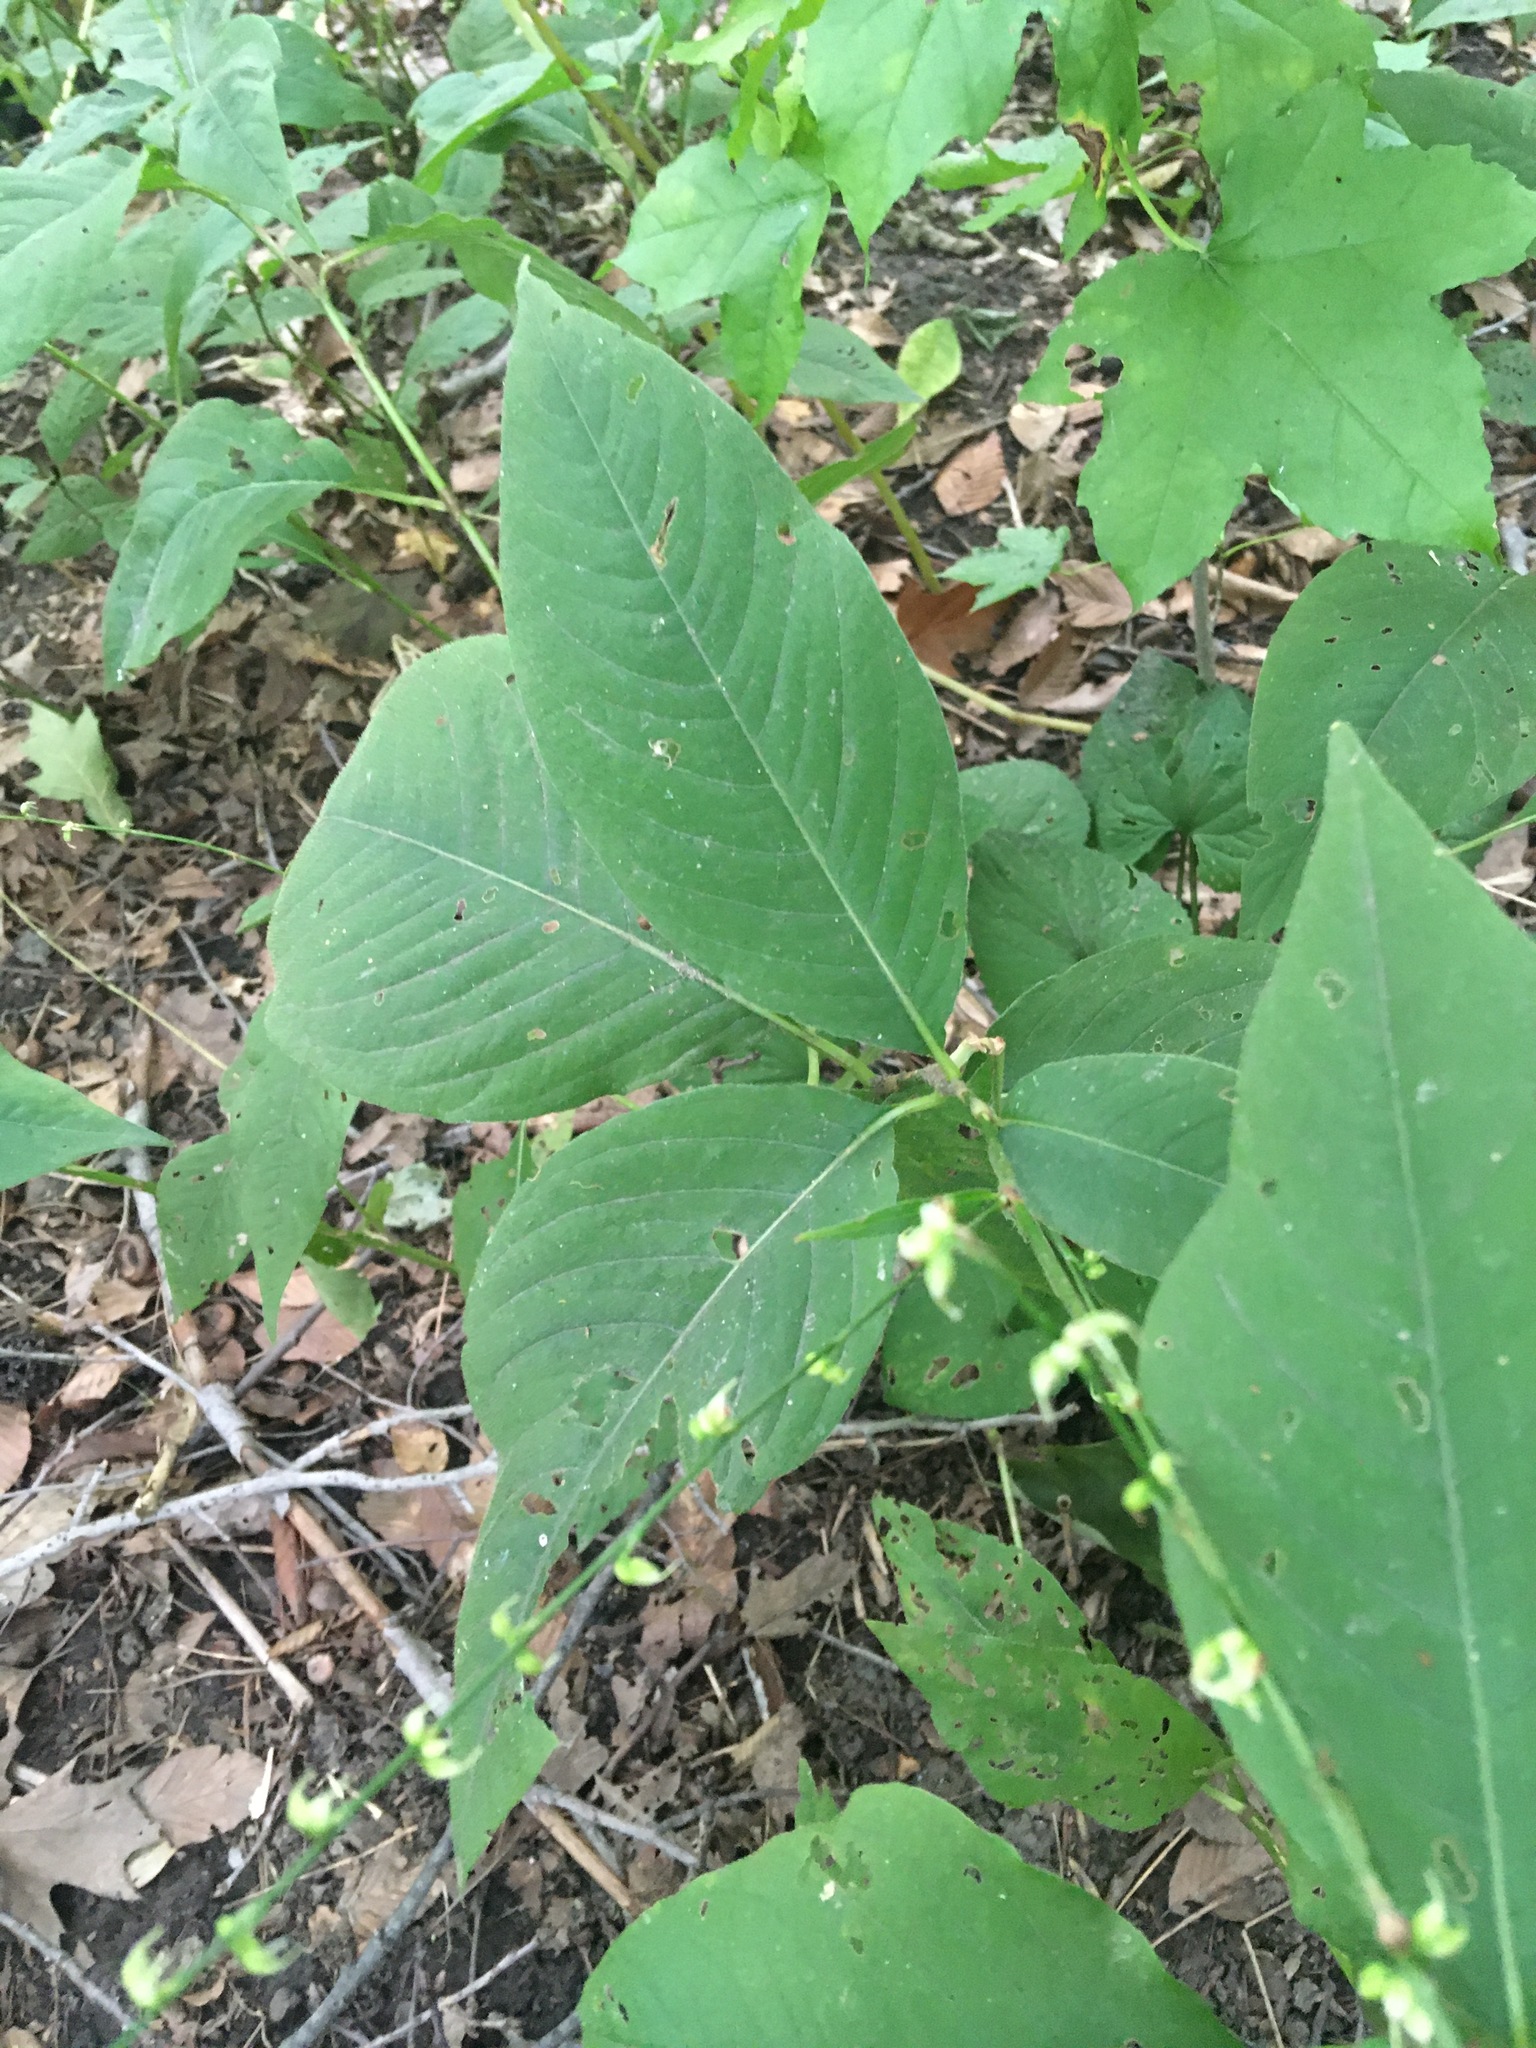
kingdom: Plantae
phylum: Tracheophyta
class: Magnoliopsida
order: Caryophyllales
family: Polygonaceae
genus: Persicaria
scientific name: Persicaria virginiana
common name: Jumpseed
